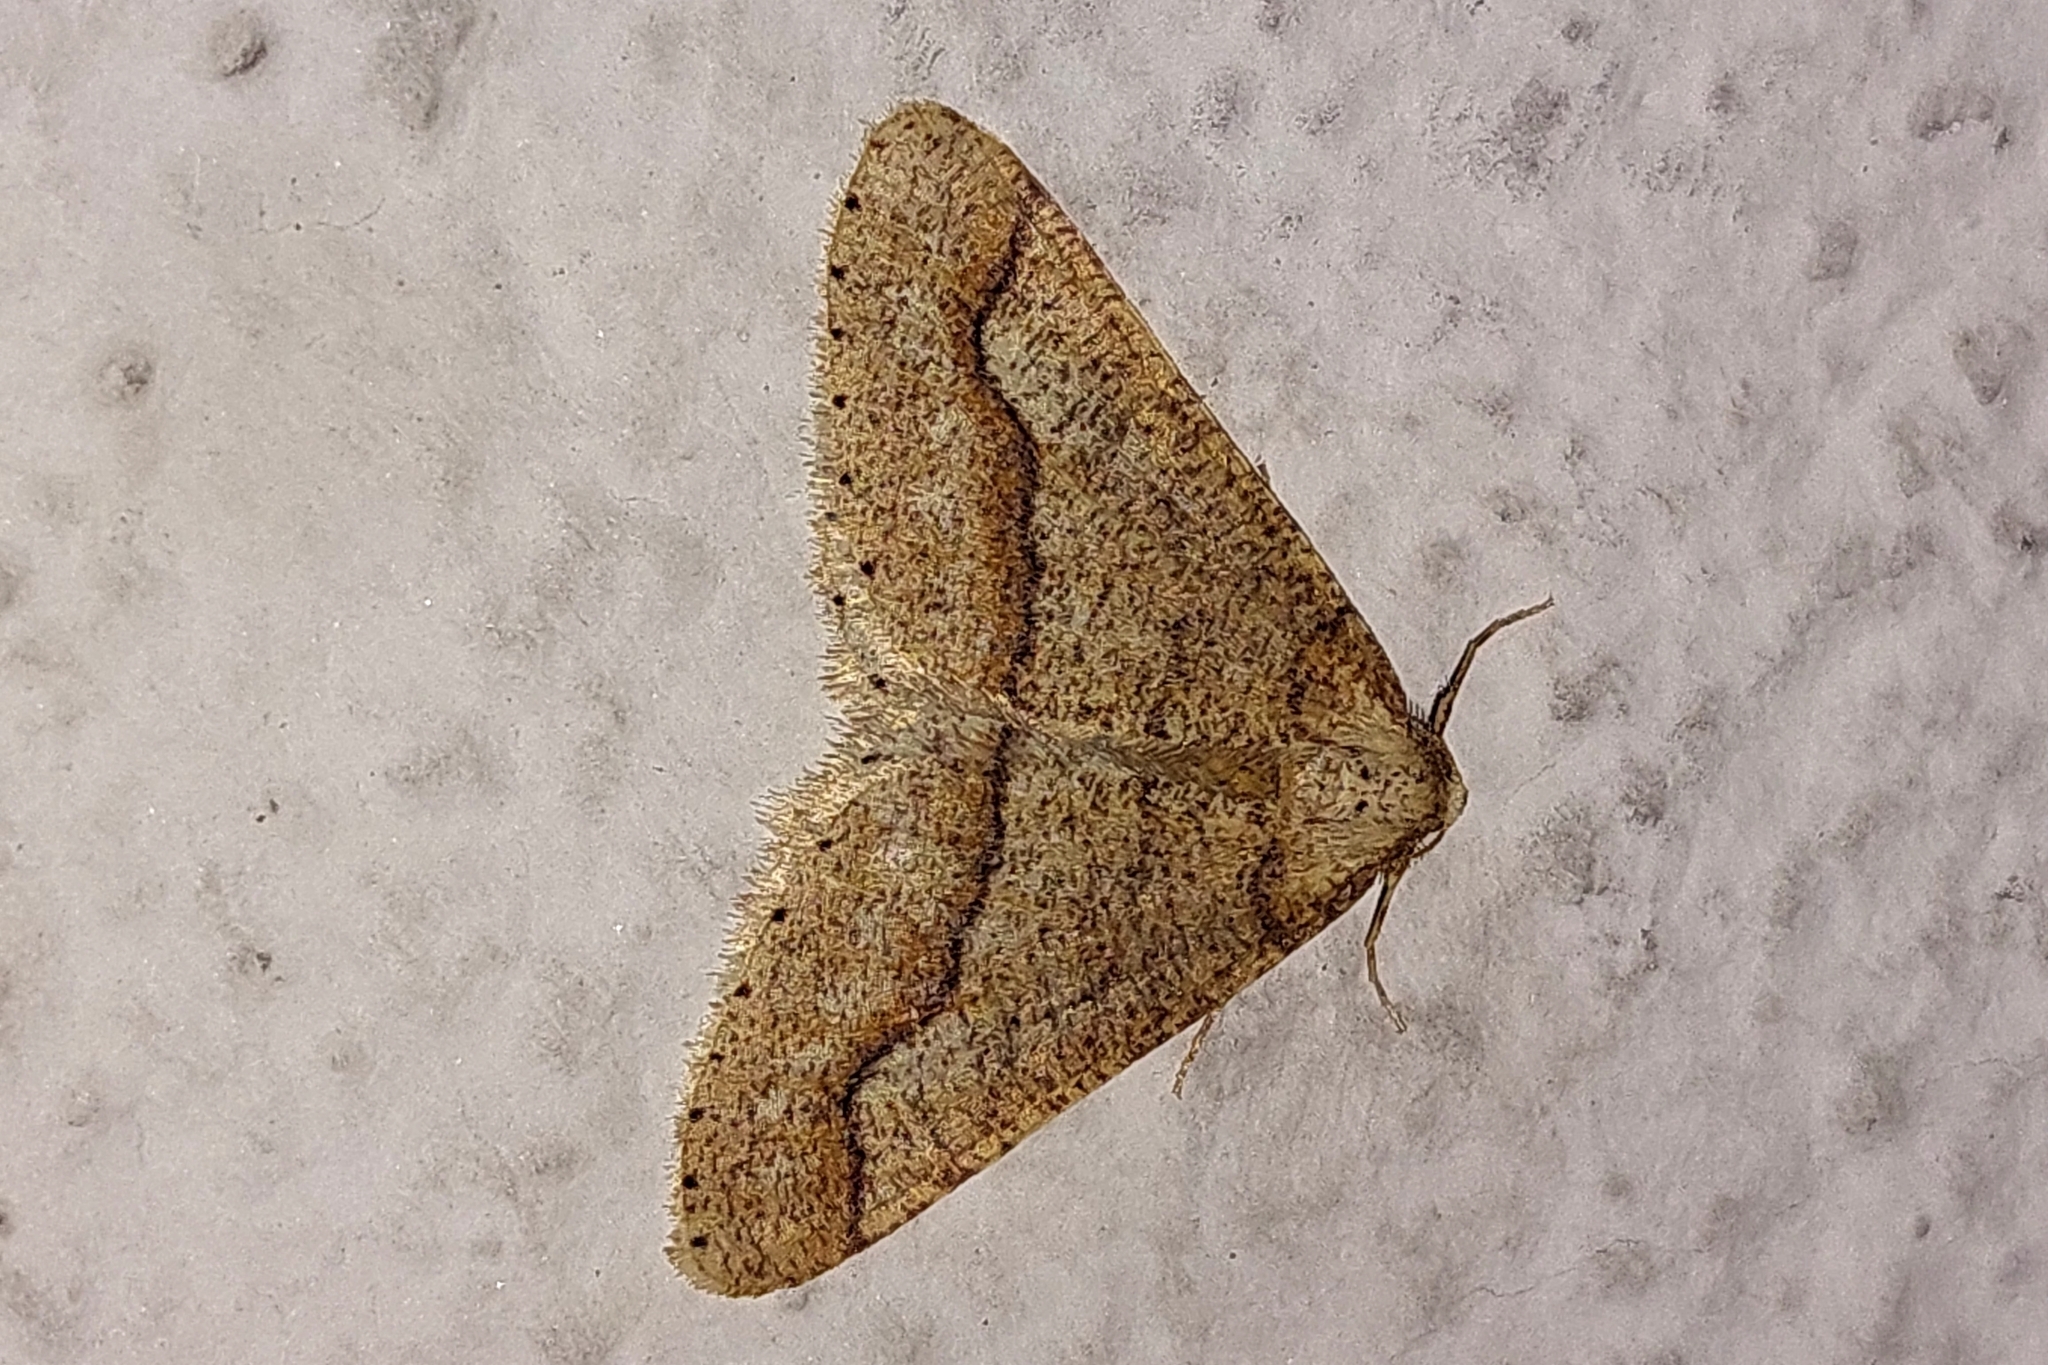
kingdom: Animalia
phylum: Arthropoda
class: Insecta
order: Lepidoptera
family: Geometridae
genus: Agriopis
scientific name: Agriopis marginaria
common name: Dotted border
